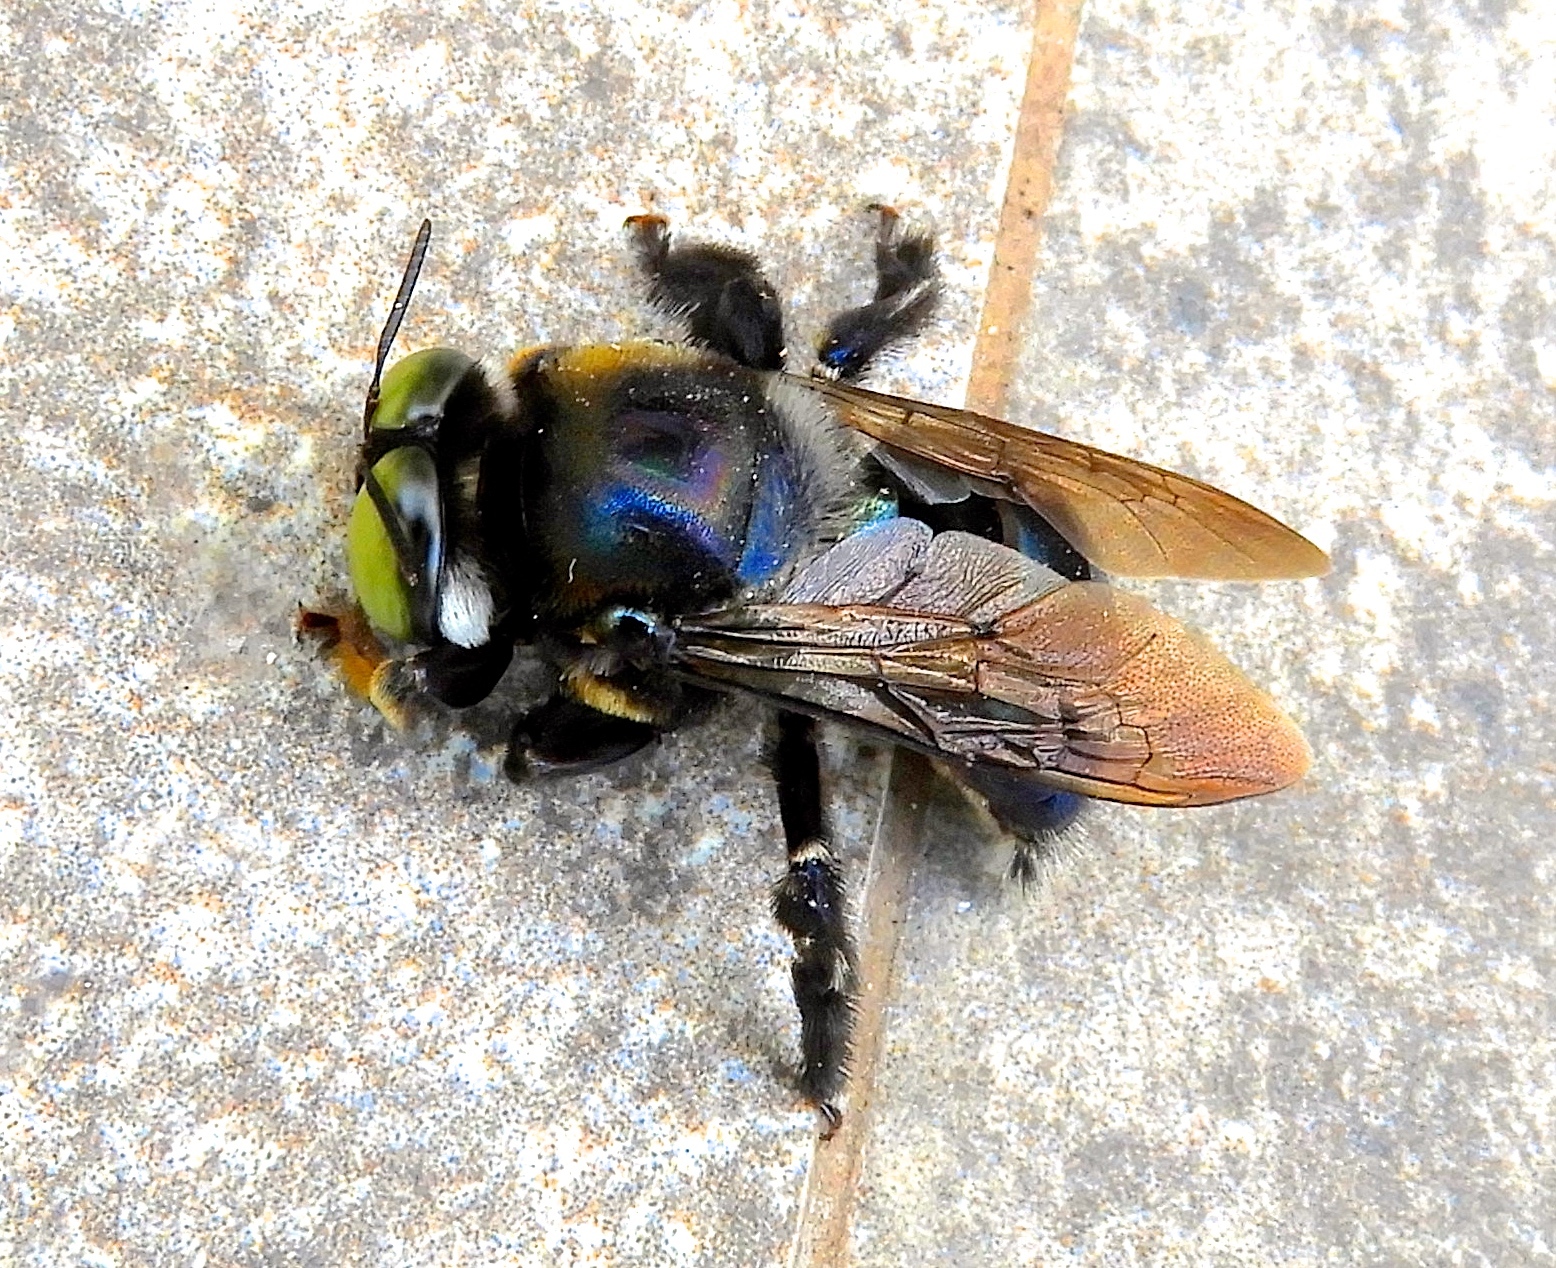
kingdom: Animalia
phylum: Arthropoda
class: Insecta
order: Hymenoptera
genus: Schonnherria
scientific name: Schonnherria
